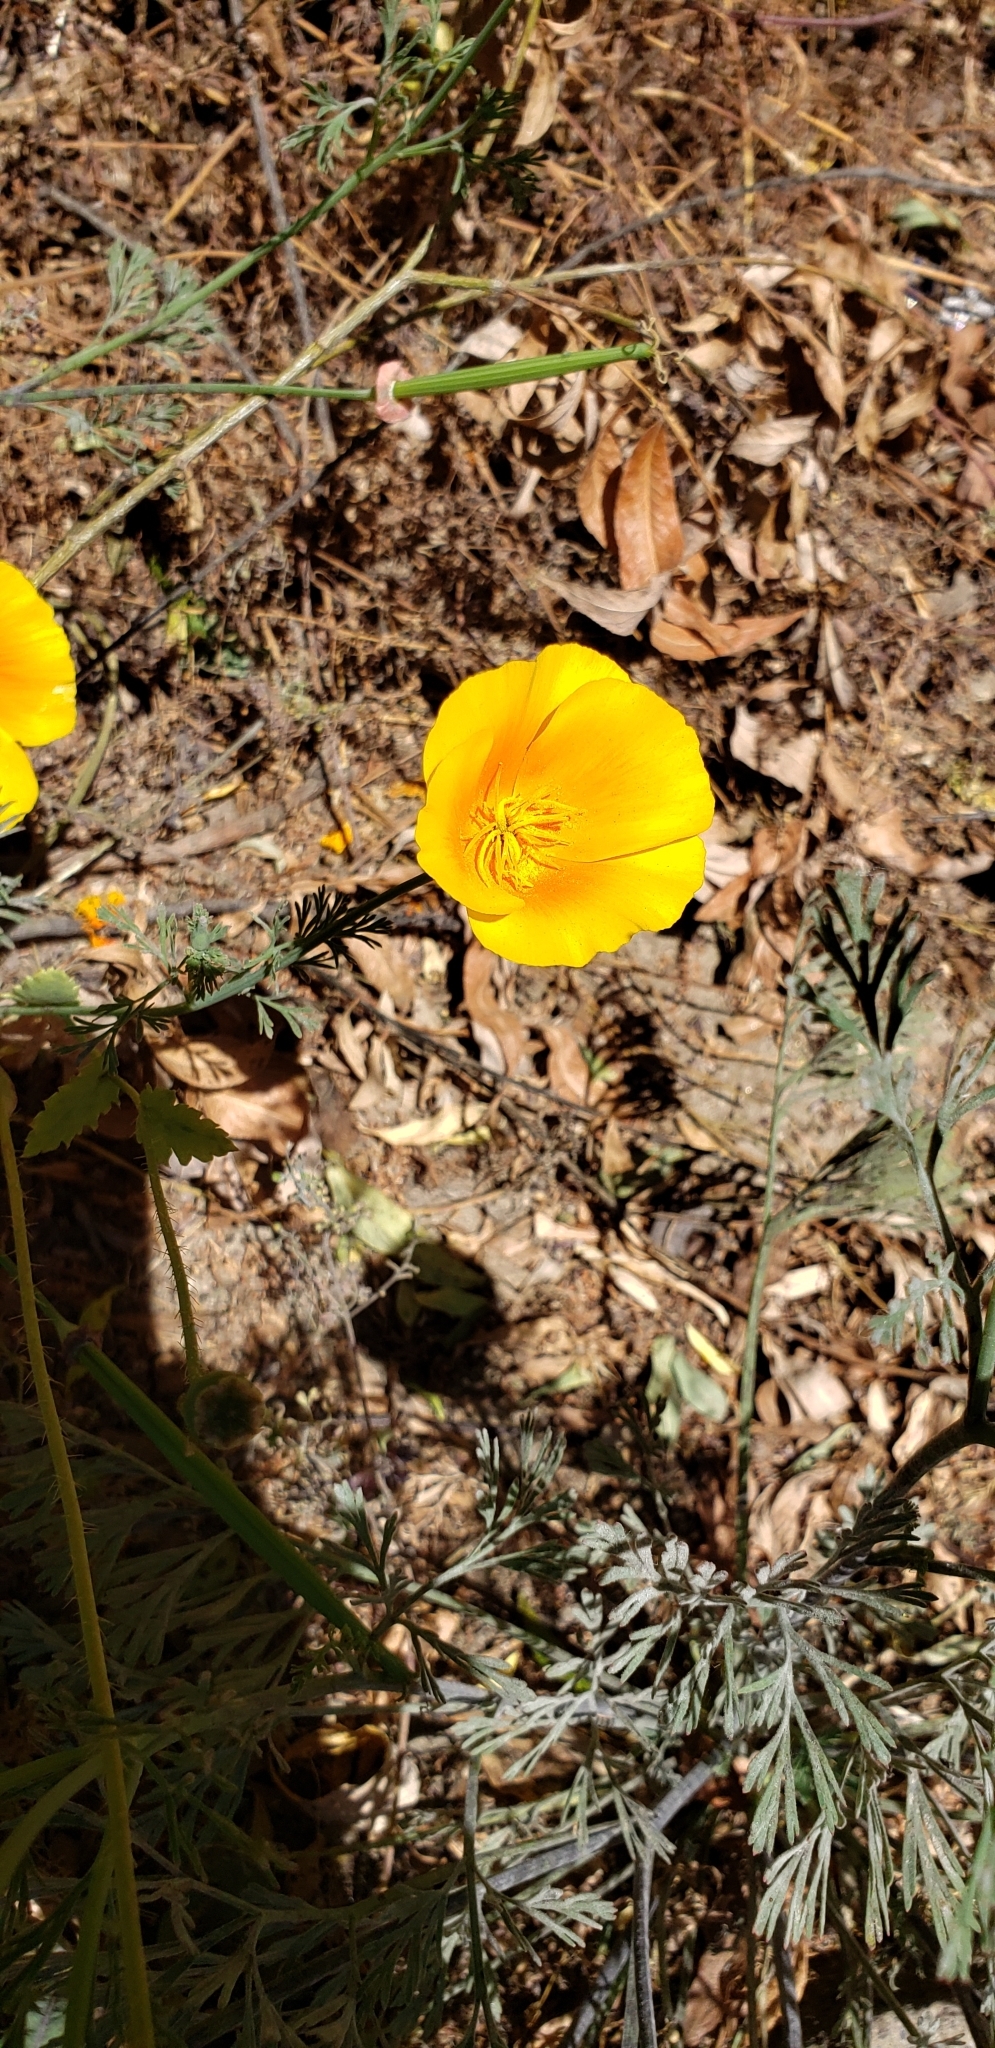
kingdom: Plantae
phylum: Tracheophyta
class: Magnoliopsida
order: Ranunculales
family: Papaveraceae
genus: Eschscholzia
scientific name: Eschscholzia californica
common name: California poppy
